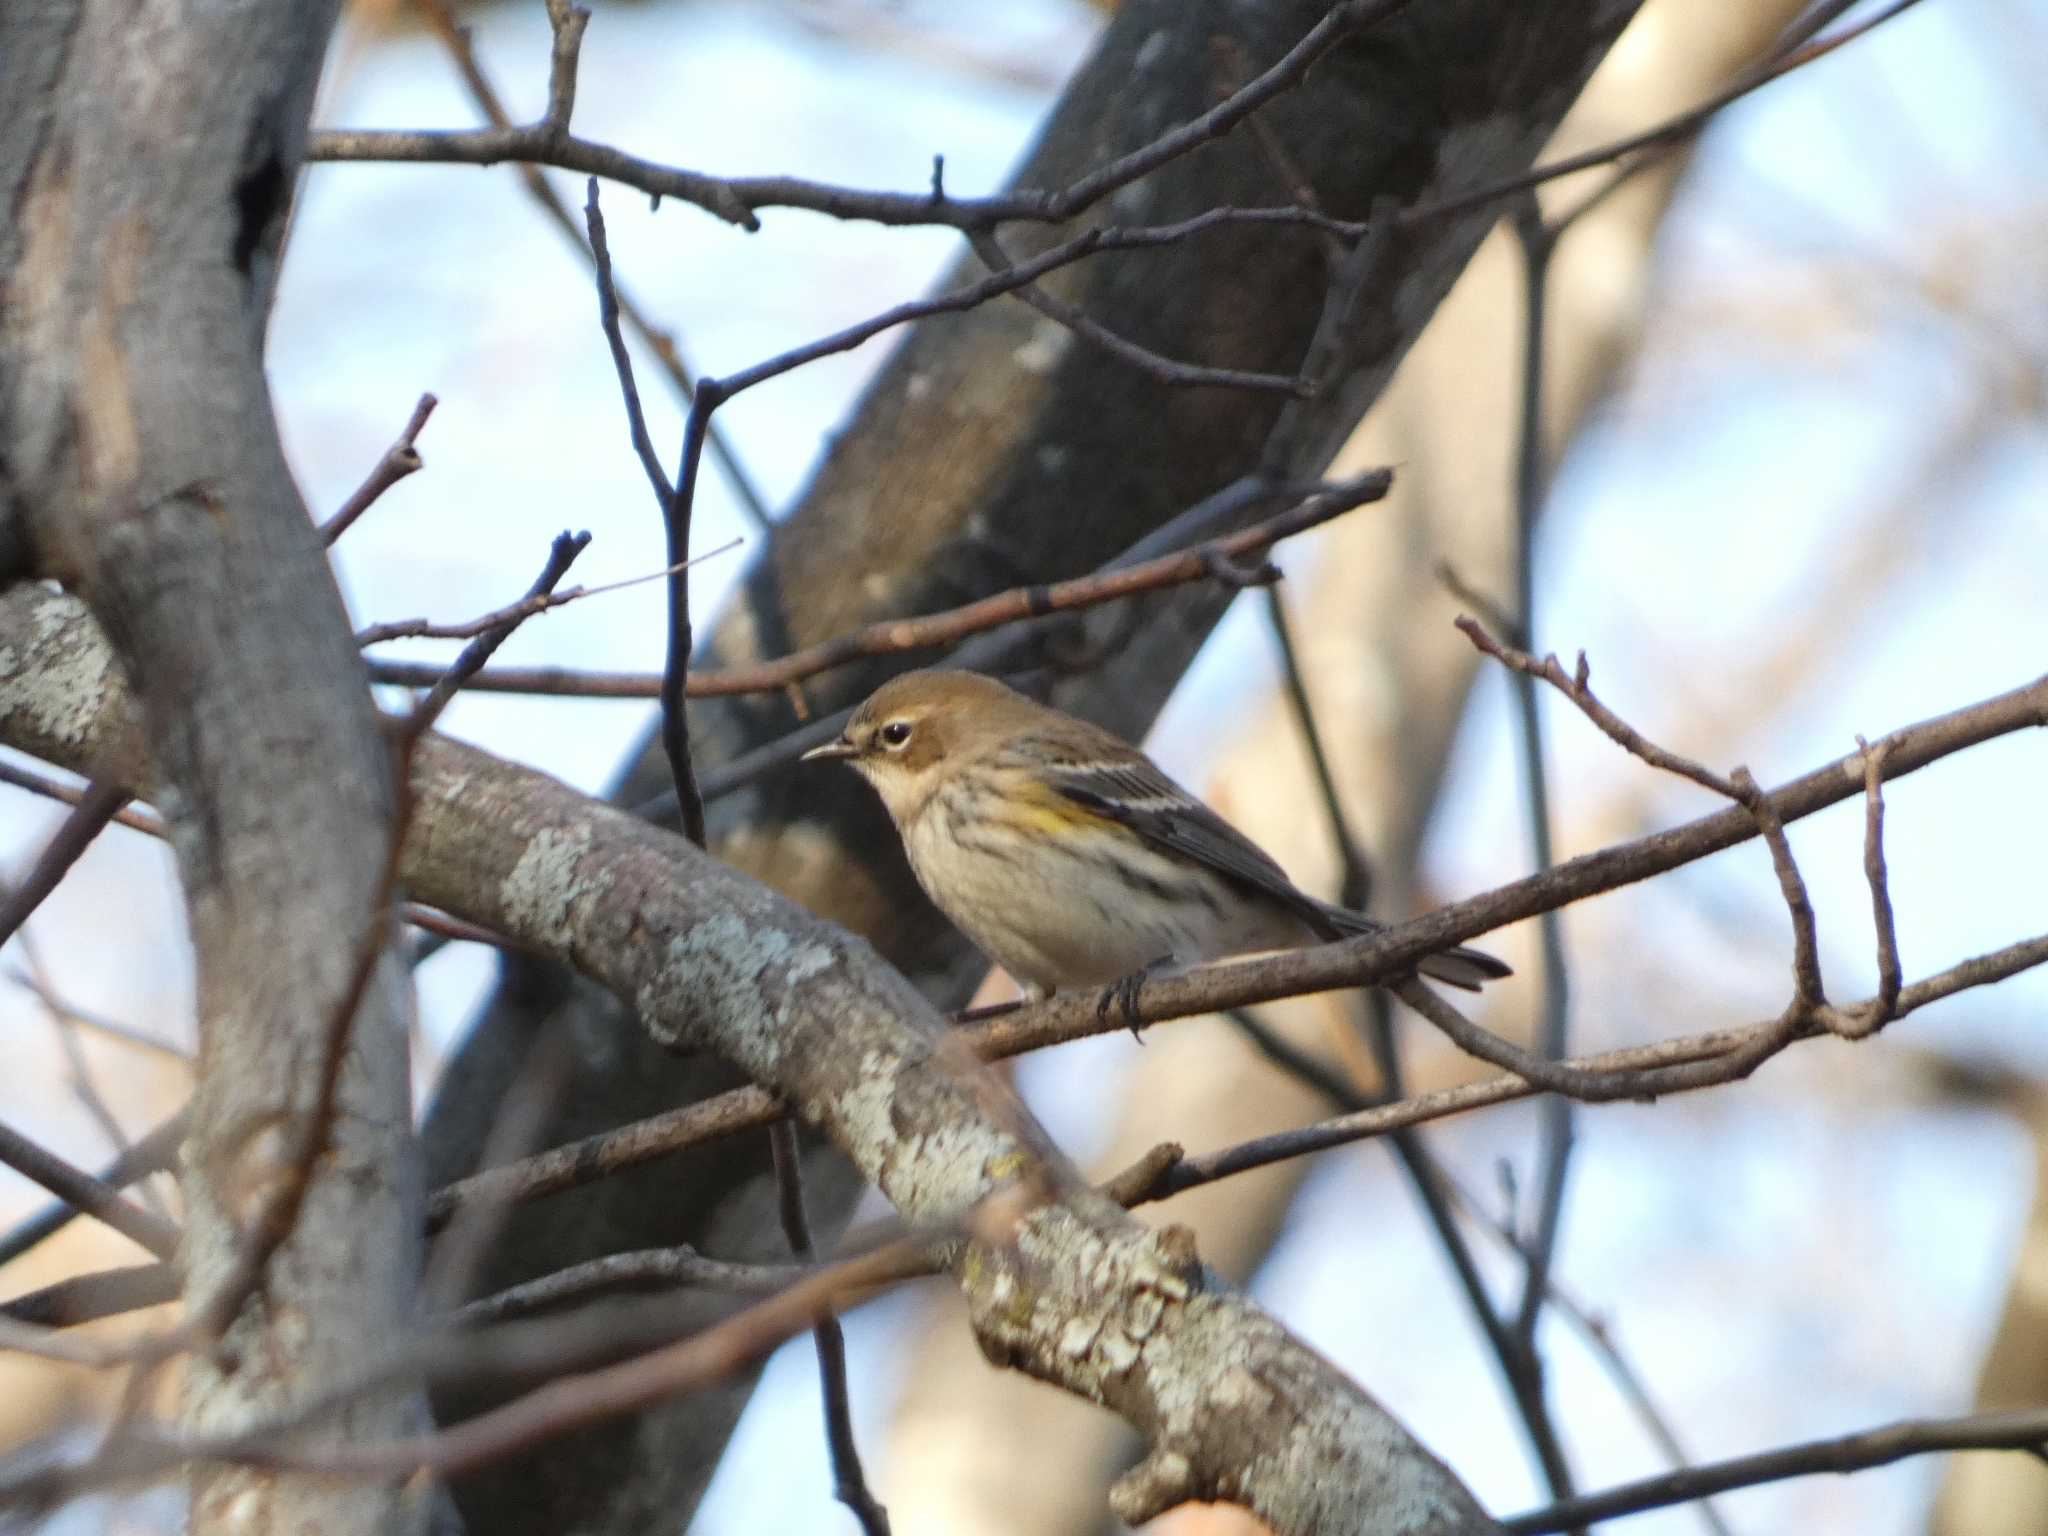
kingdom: Animalia
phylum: Chordata
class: Aves
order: Passeriformes
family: Parulidae
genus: Setophaga
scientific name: Setophaga coronata
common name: Myrtle warbler
